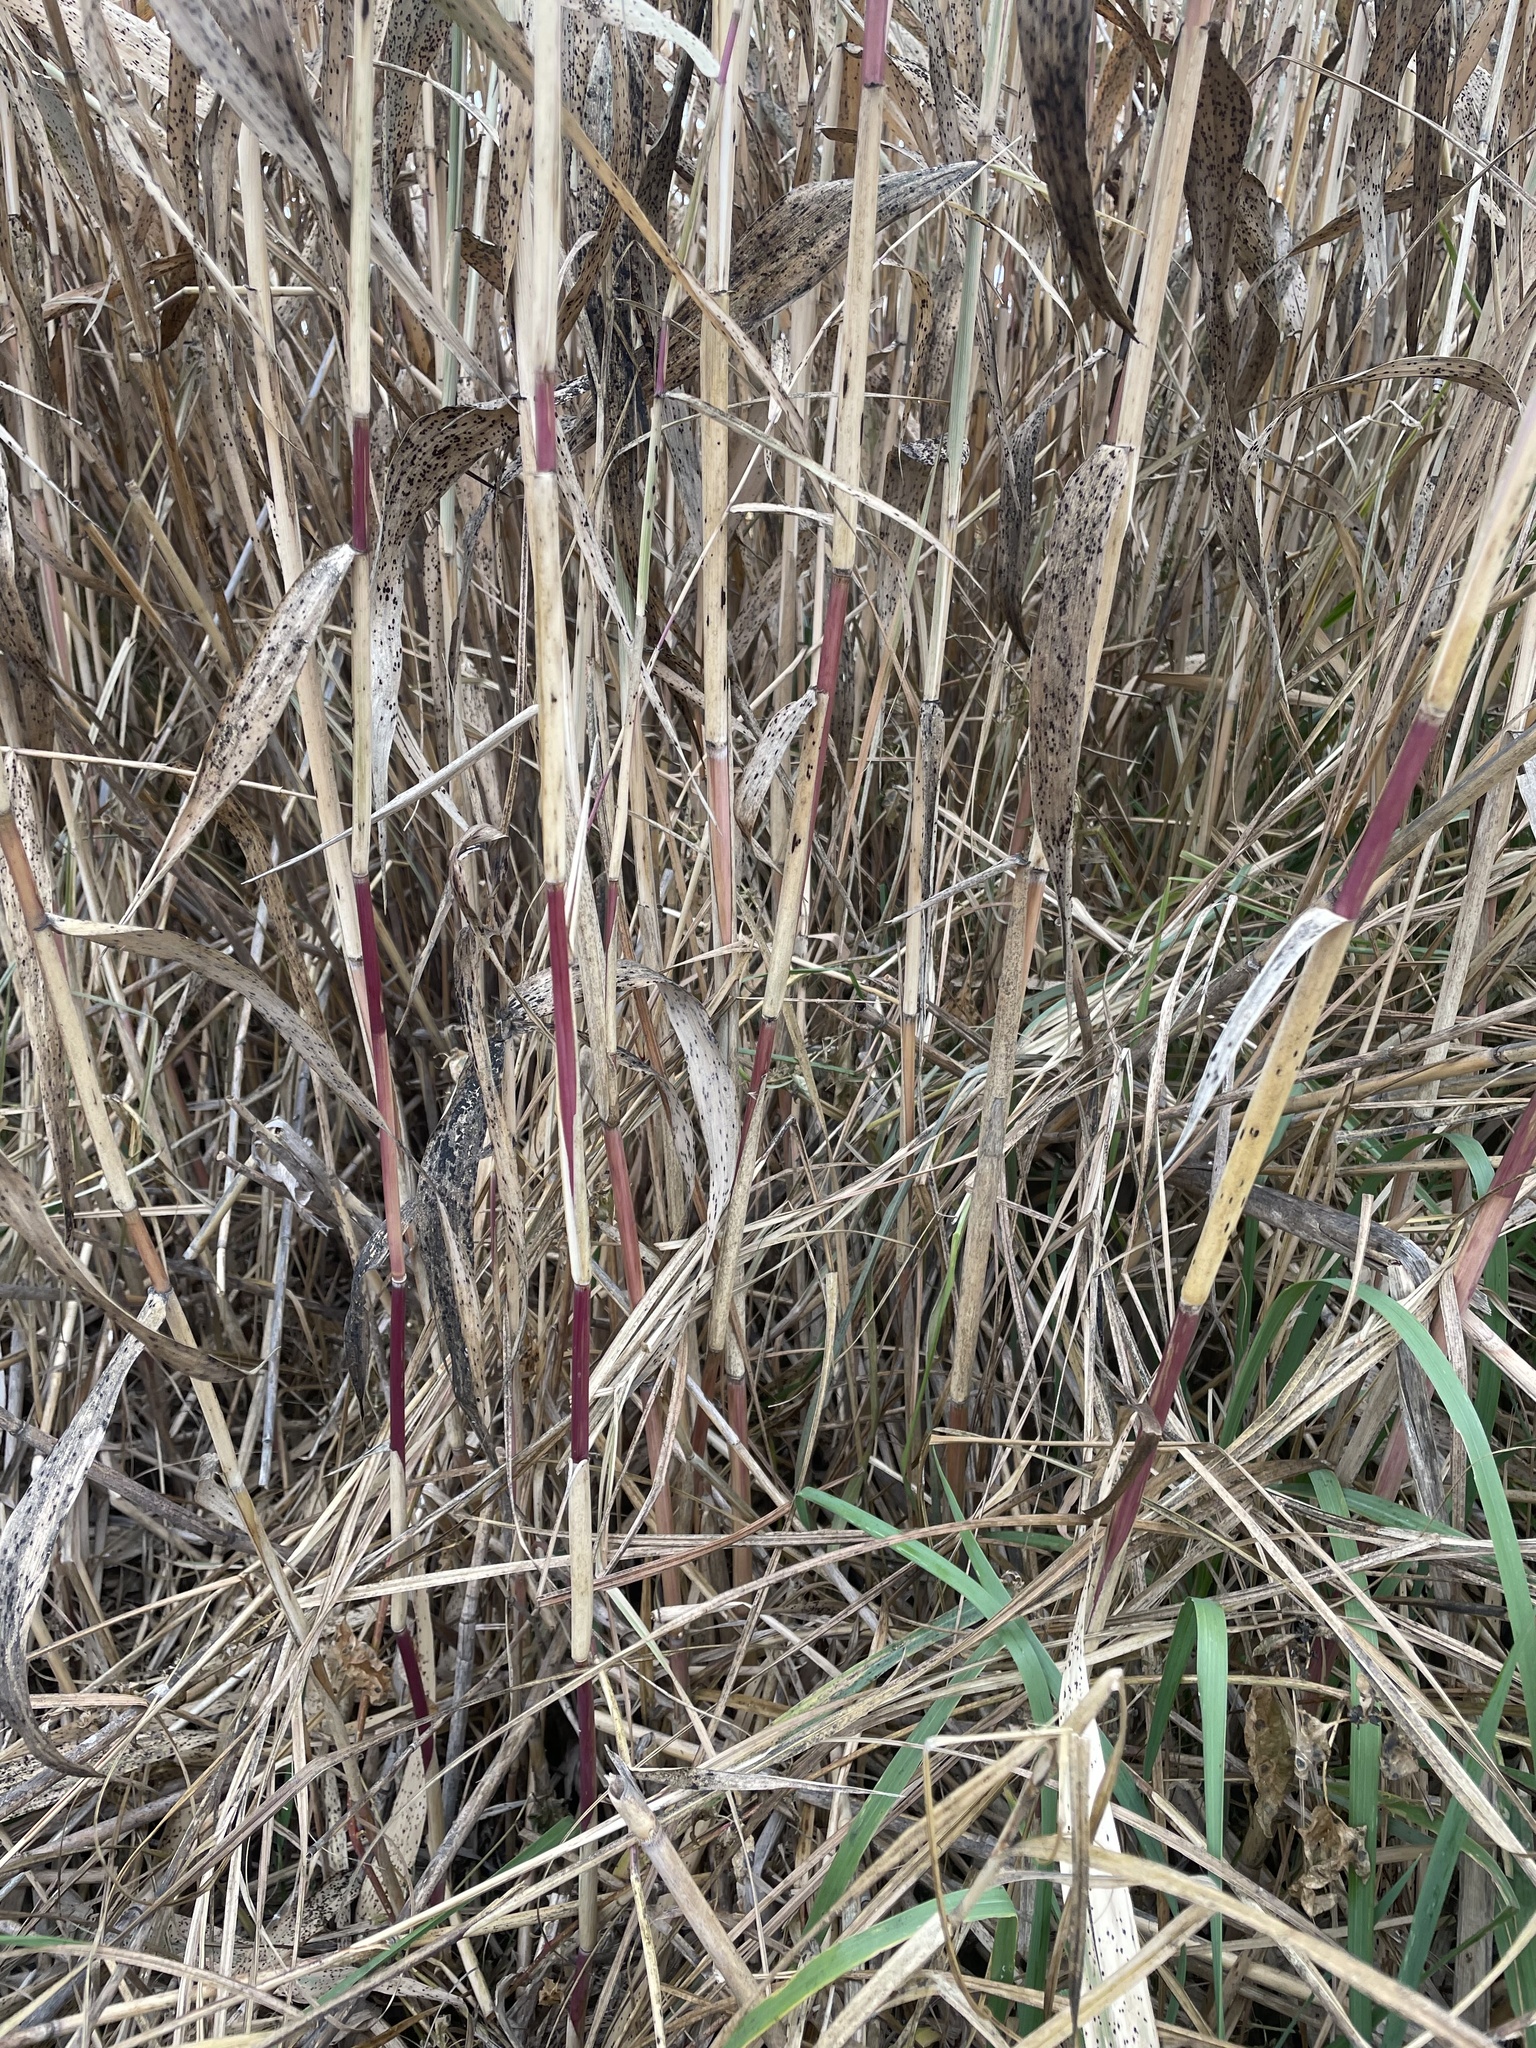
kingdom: Plantae
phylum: Tracheophyta
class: Liliopsida
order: Poales
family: Poaceae
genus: Phragmites
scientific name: Phragmites australis
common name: Common reed
